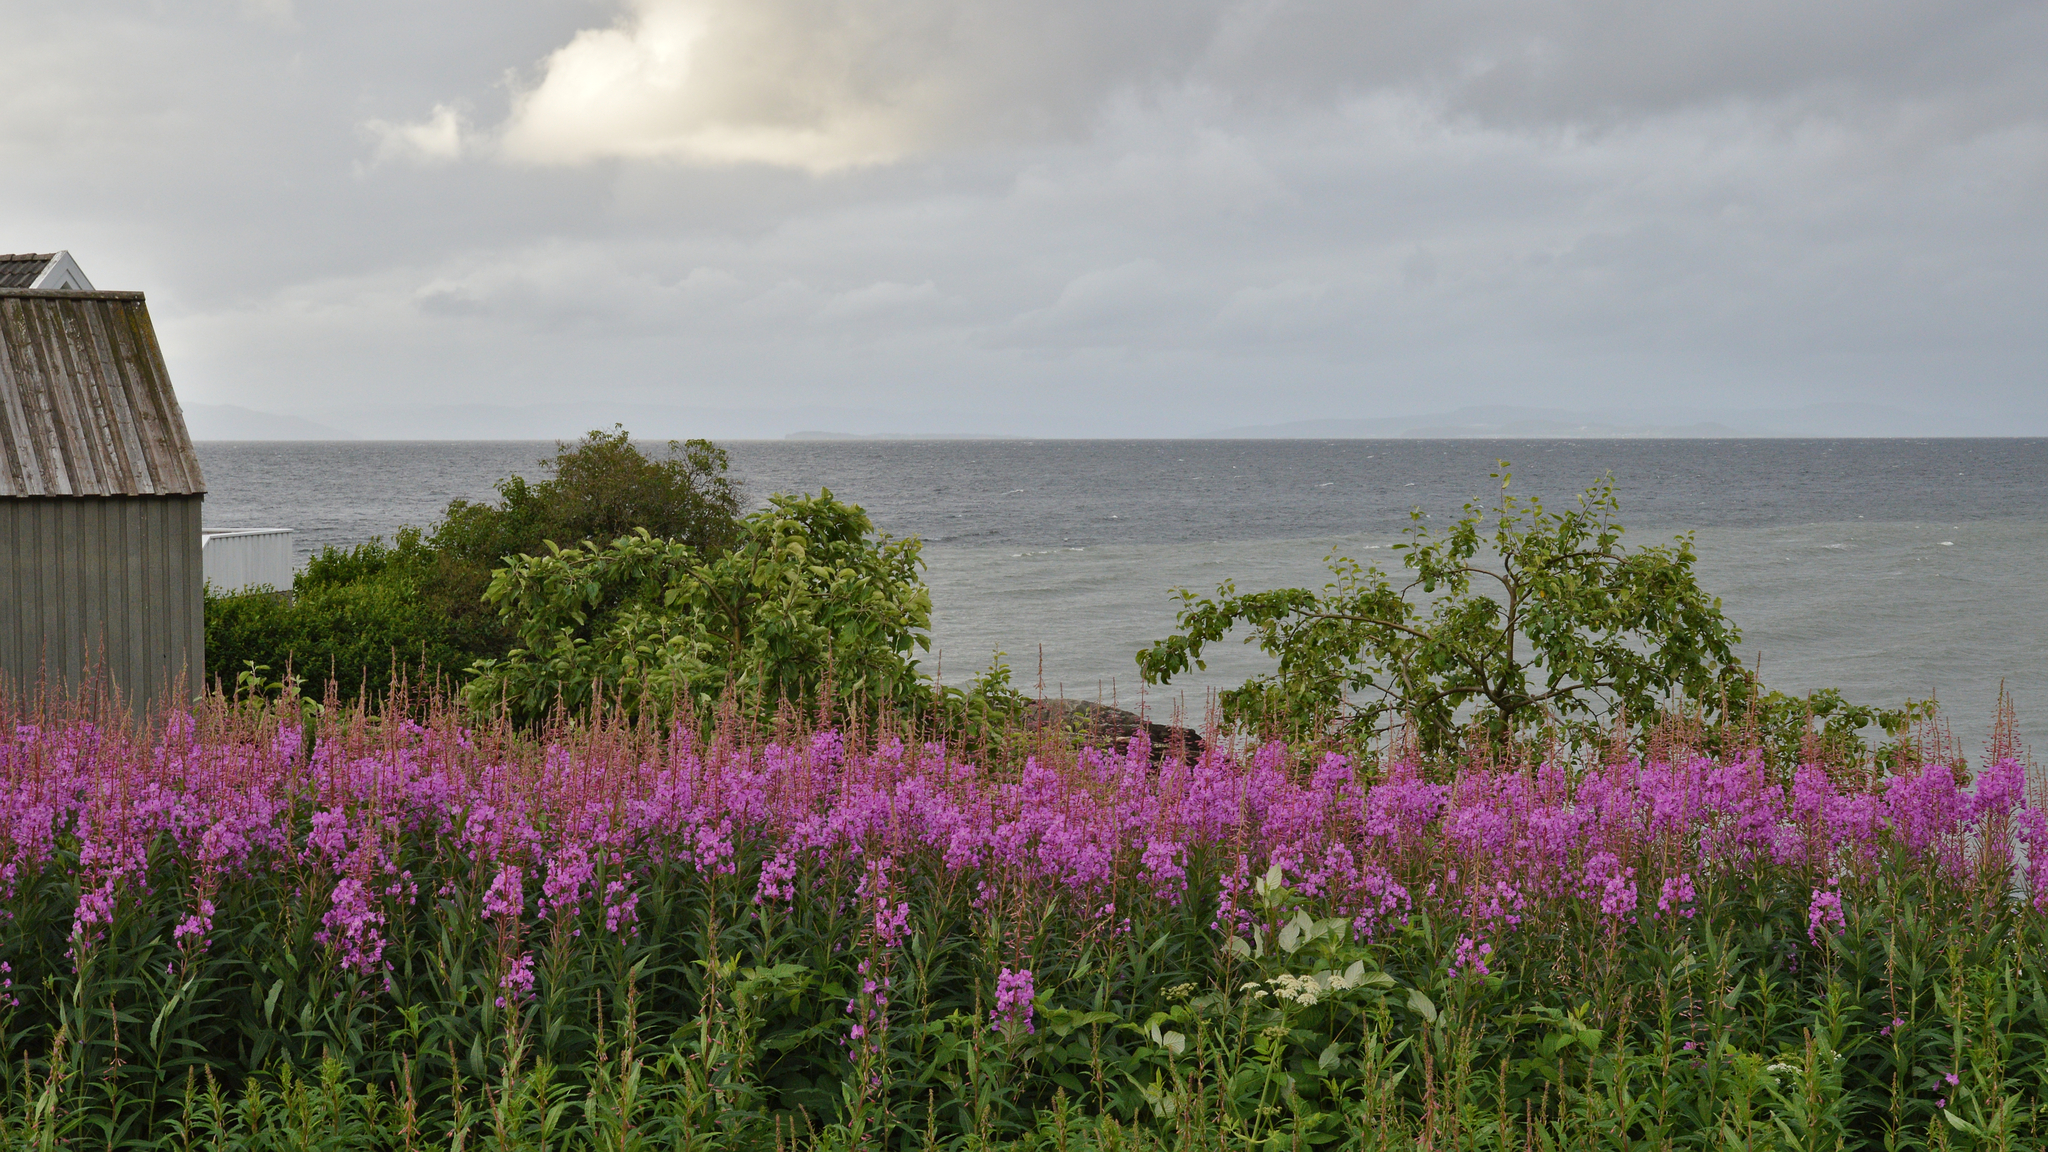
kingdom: Plantae
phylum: Tracheophyta
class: Magnoliopsida
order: Myrtales
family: Onagraceae
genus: Chamaenerion
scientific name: Chamaenerion angustifolium
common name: Fireweed
